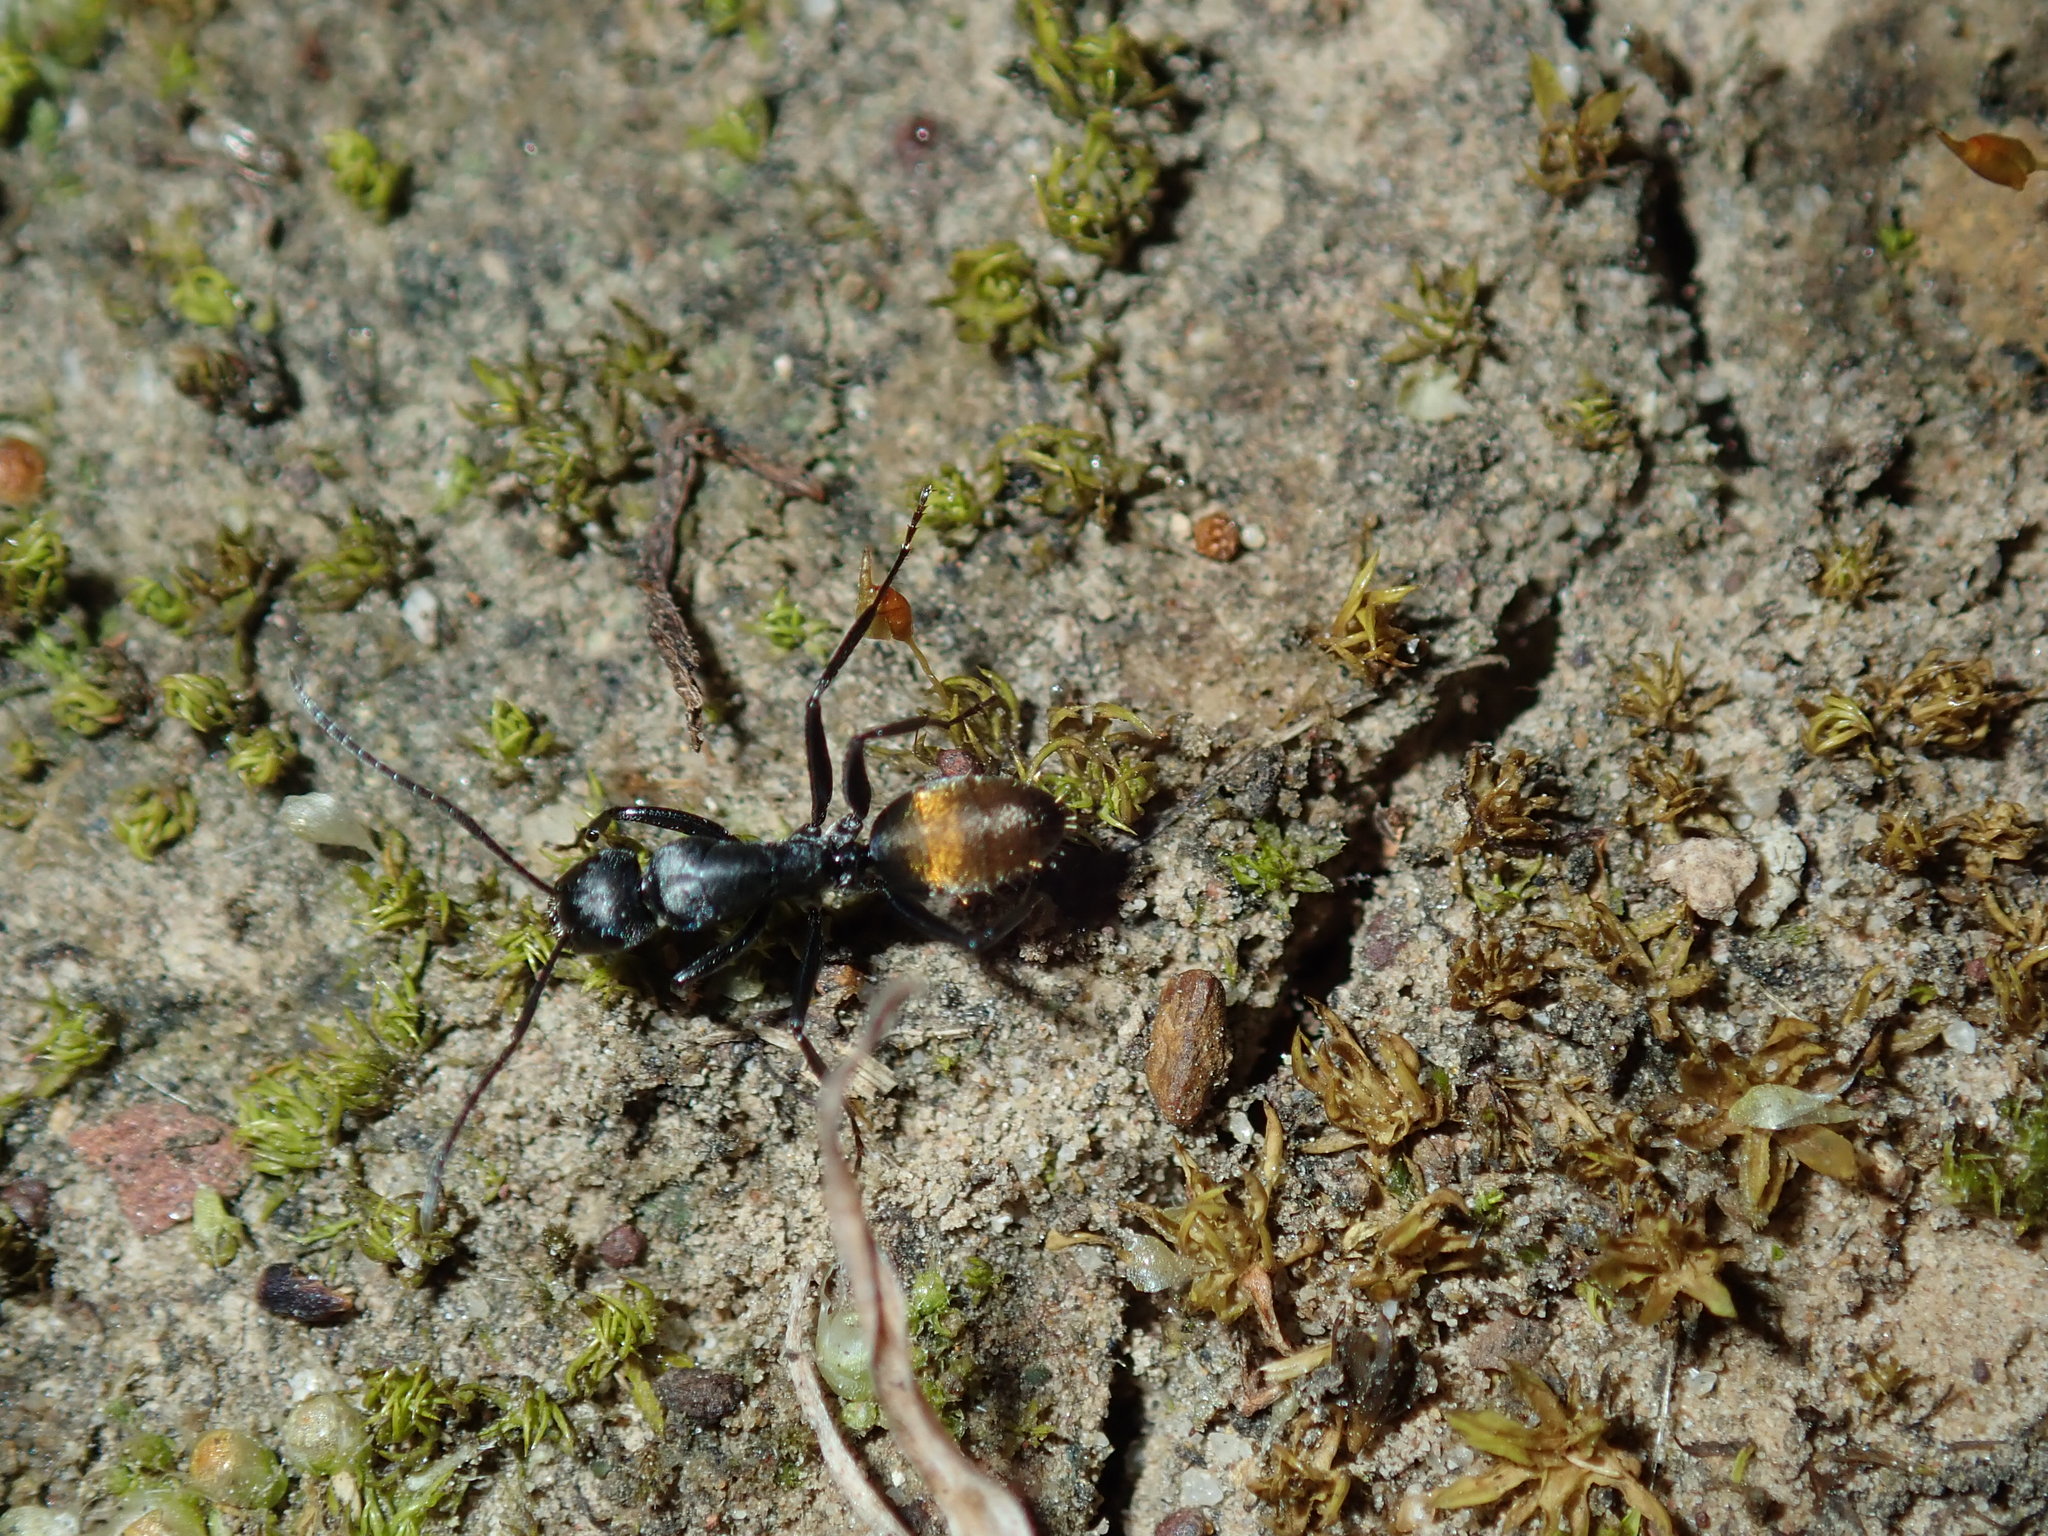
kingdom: Animalia
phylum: Arthropoda
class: Insecta
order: Hymenoptera
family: Formicidae
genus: Camponotus
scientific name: Camponotus aeneopilosus
